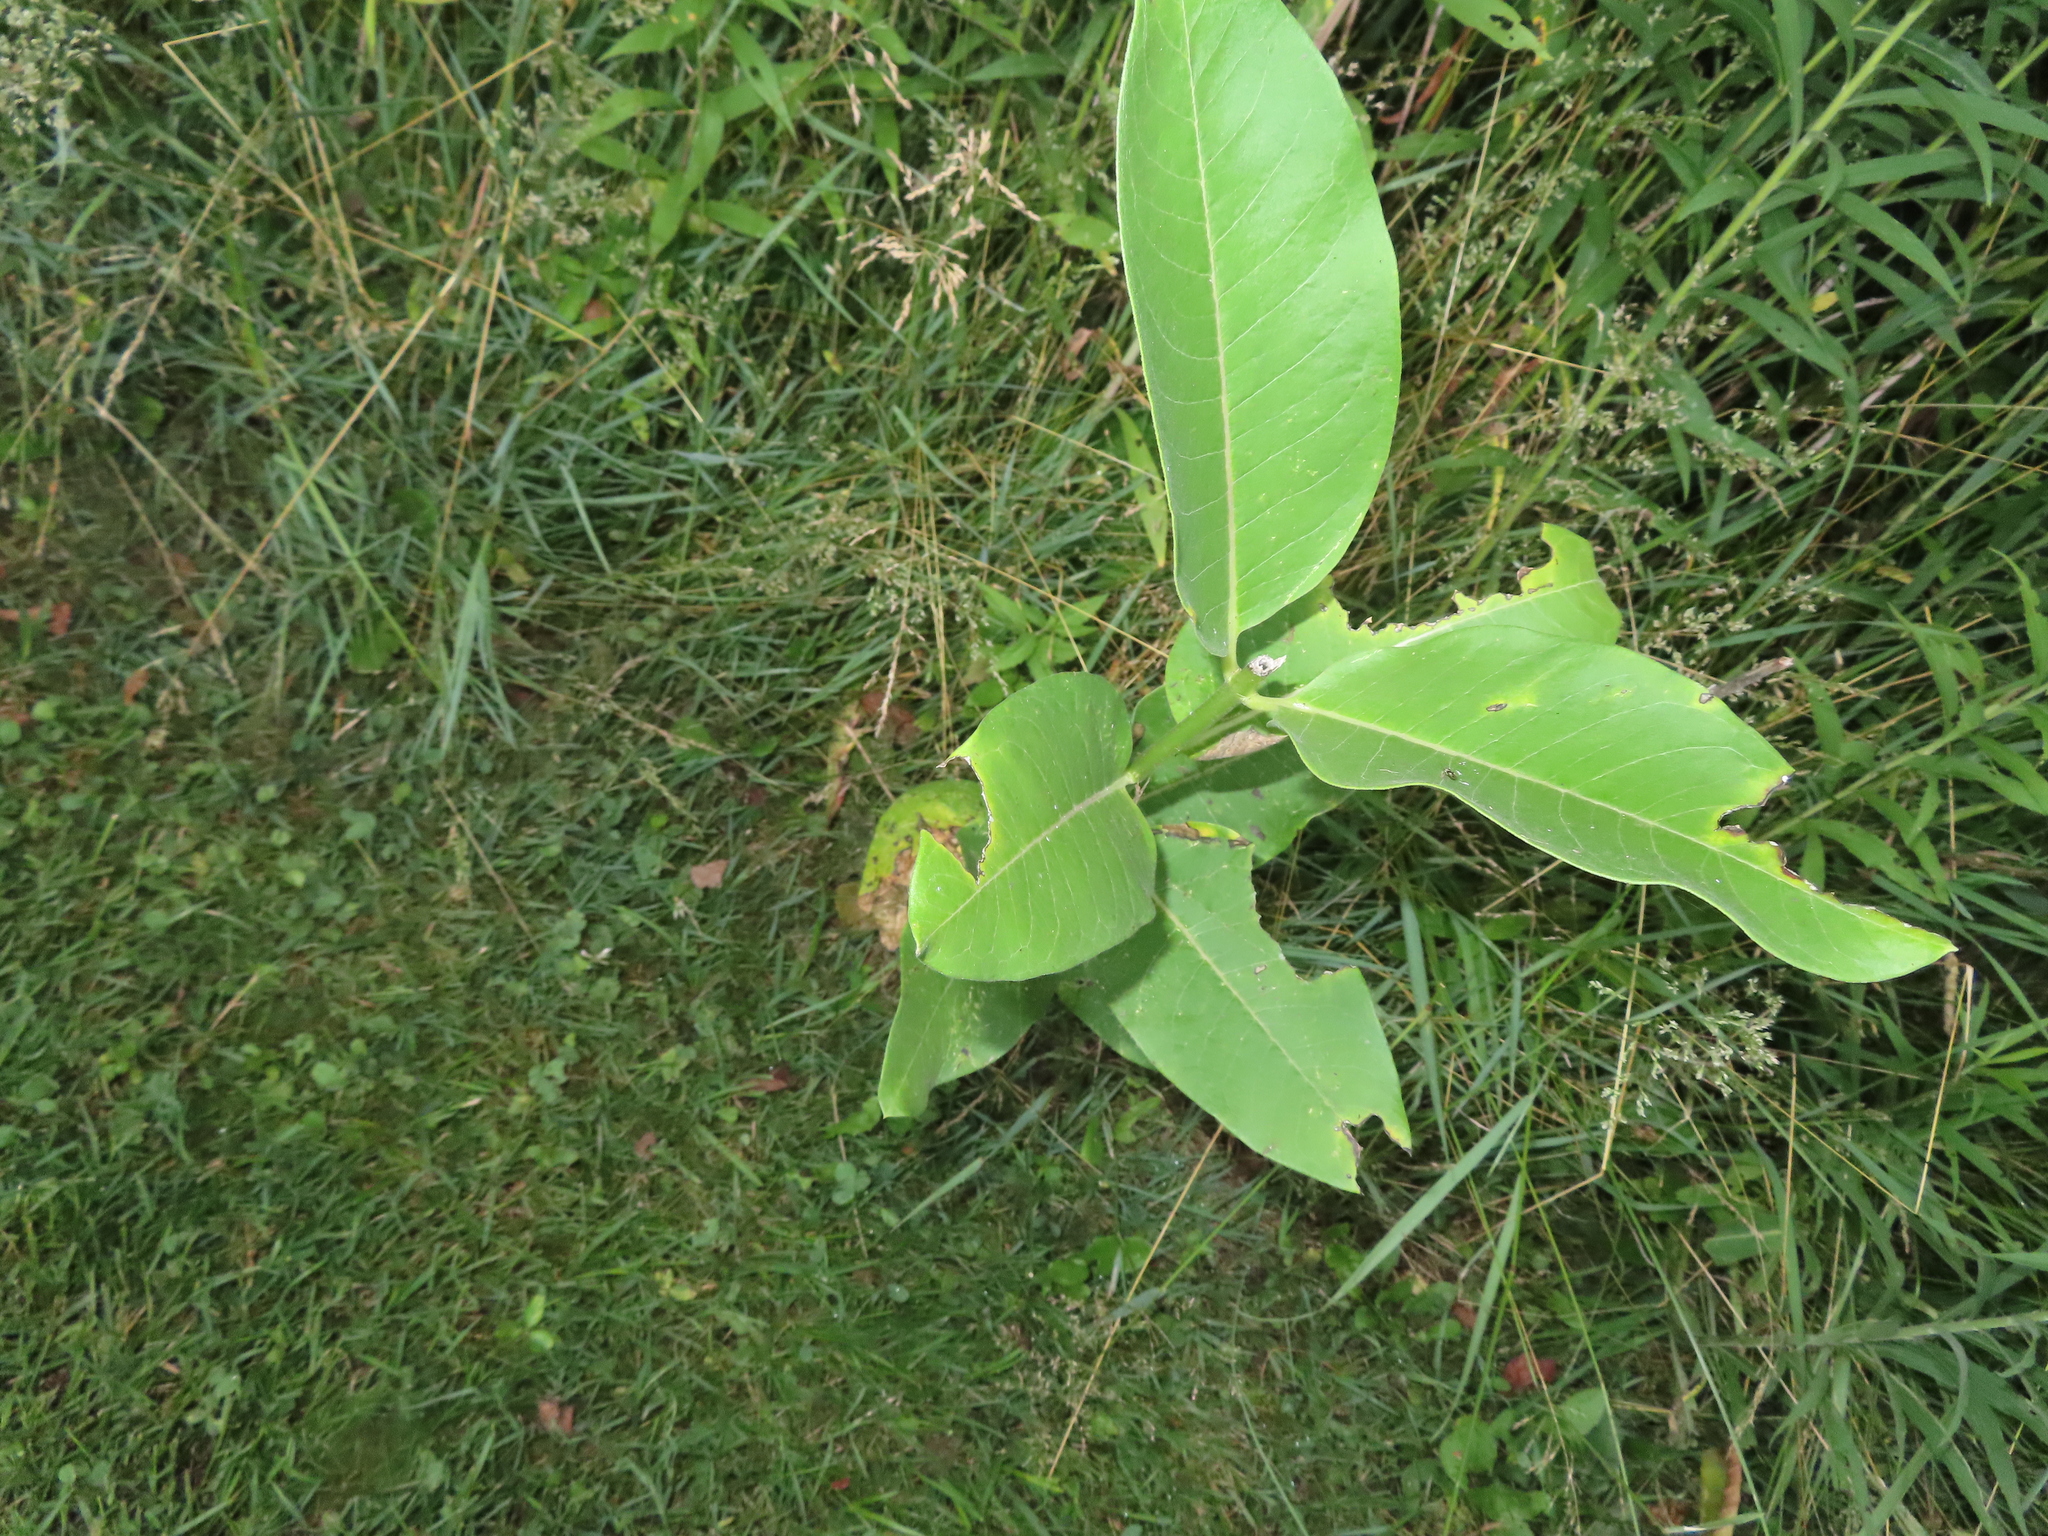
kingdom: Plantae
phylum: Tracheophyta
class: Magnoliopsida
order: Gentianales
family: Apocynaceae
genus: Asclepias
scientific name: Asclepias syriaca
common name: Common milkweed
